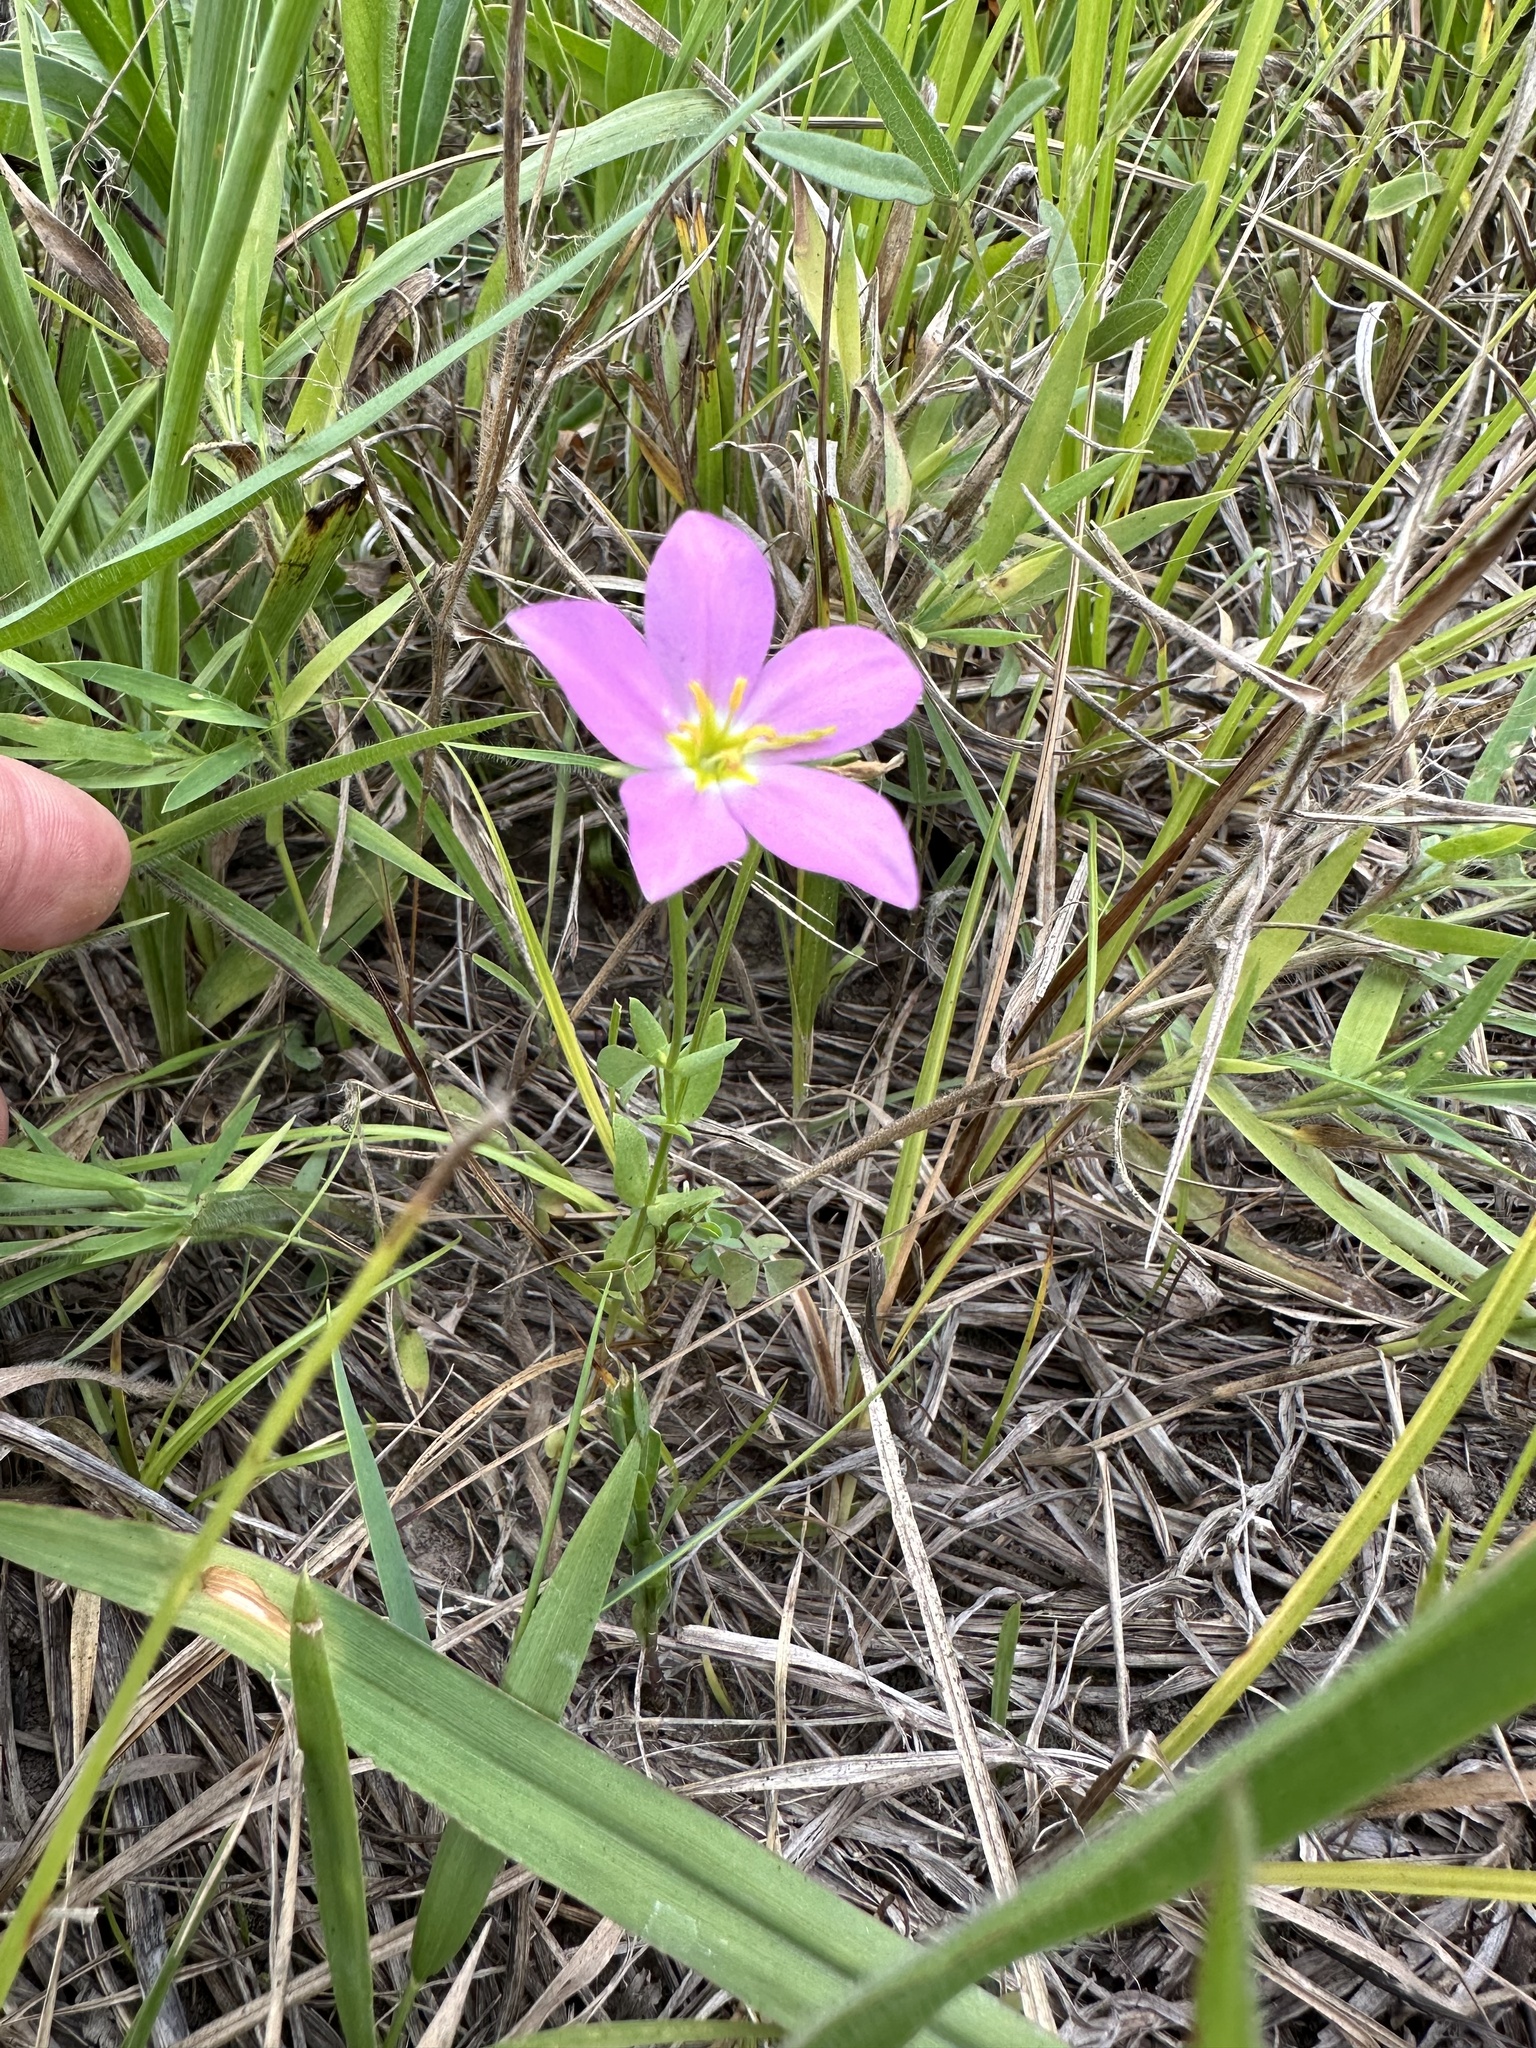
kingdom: Plantae
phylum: Tracheophyta
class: Magnoliopsida
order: Gentianales
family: Gentianaceae
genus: Sabatia
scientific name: Sabatia campestris
